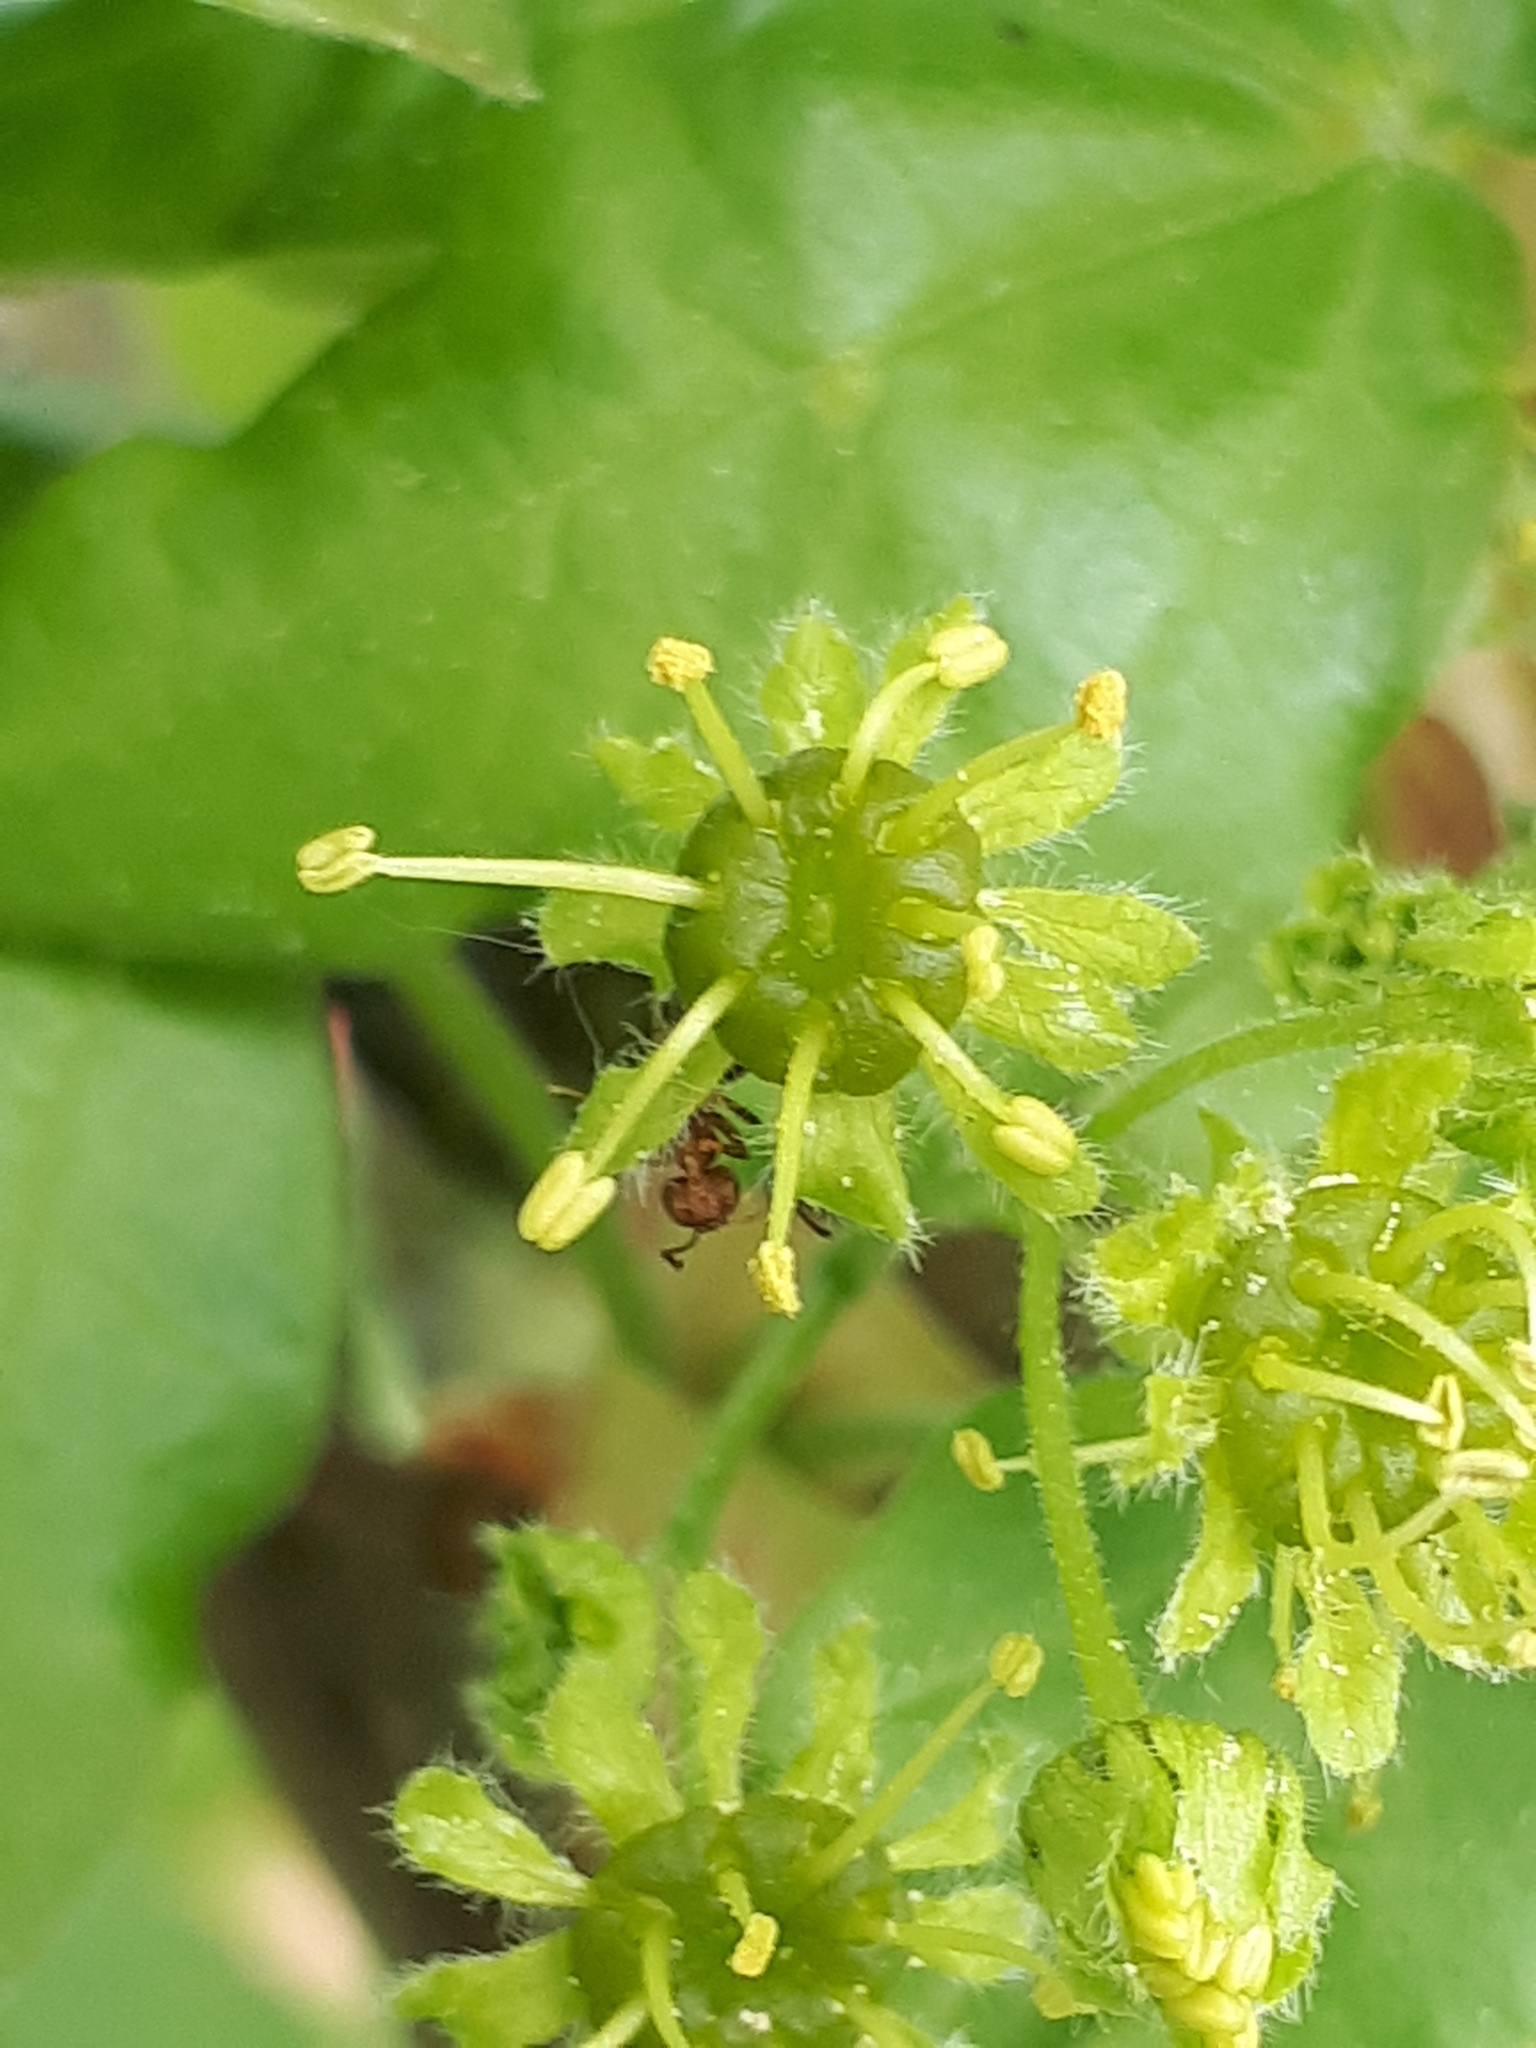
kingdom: Animalia
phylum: Arthropoda
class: Insecta
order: Hymenoptera
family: Formicidae
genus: Lasius
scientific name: Lasius brunneus
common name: Brown ant
